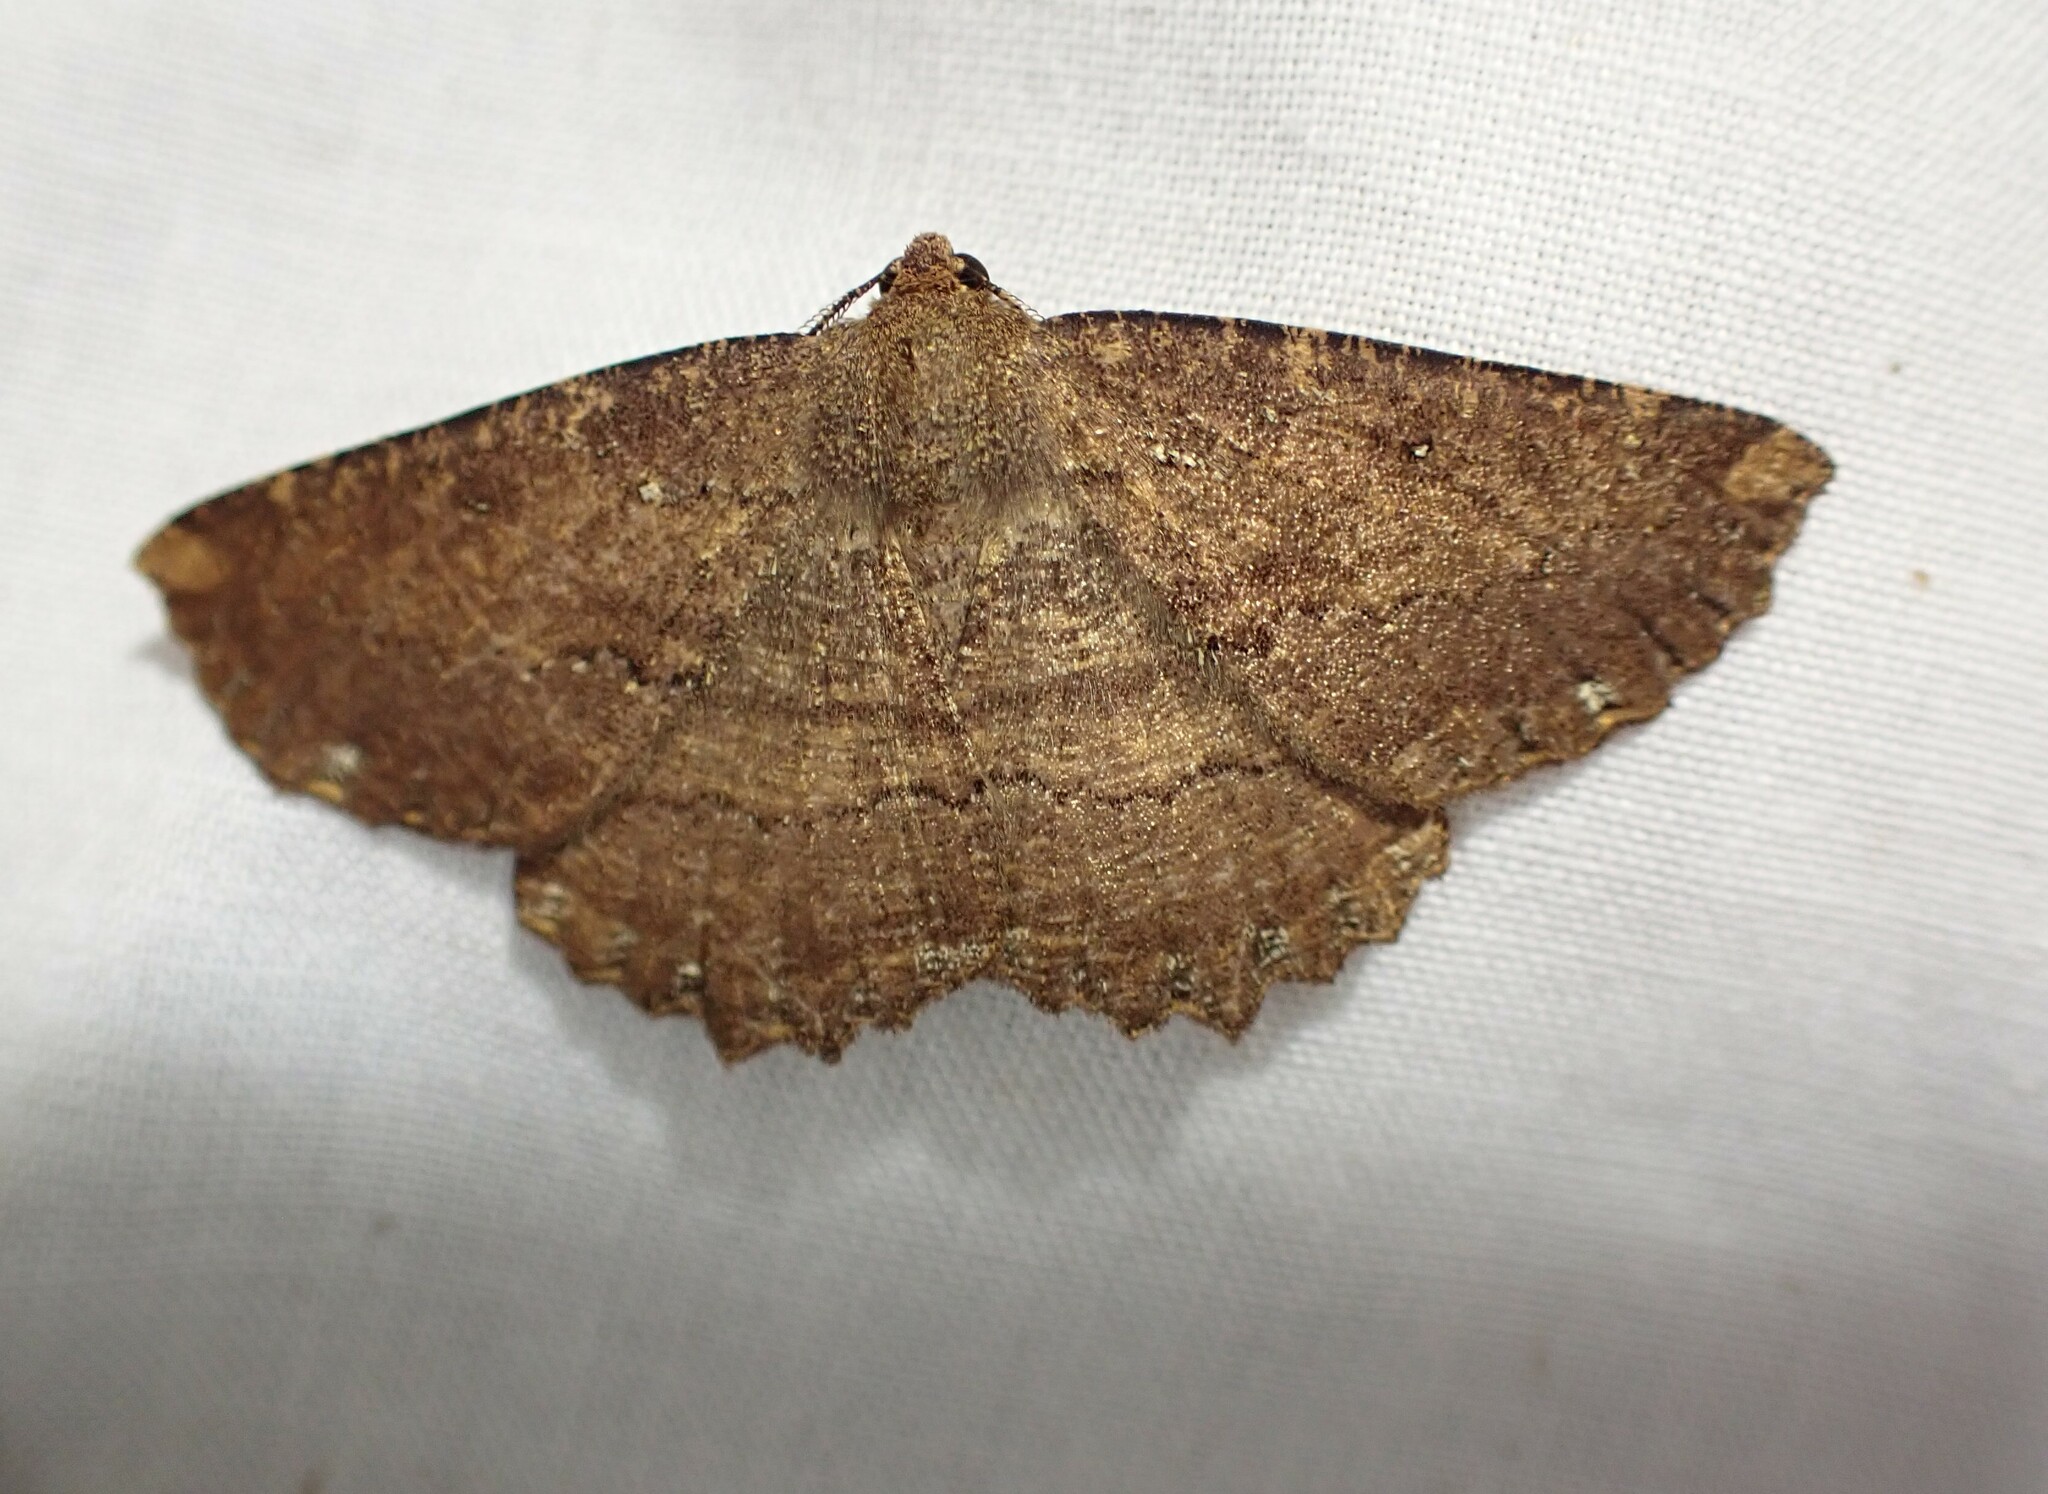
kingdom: Animalia
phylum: Arthropoda
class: Insecta
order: Lepidoptera
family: Geometridae
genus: Gellonia
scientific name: Gellonia dejectaria
